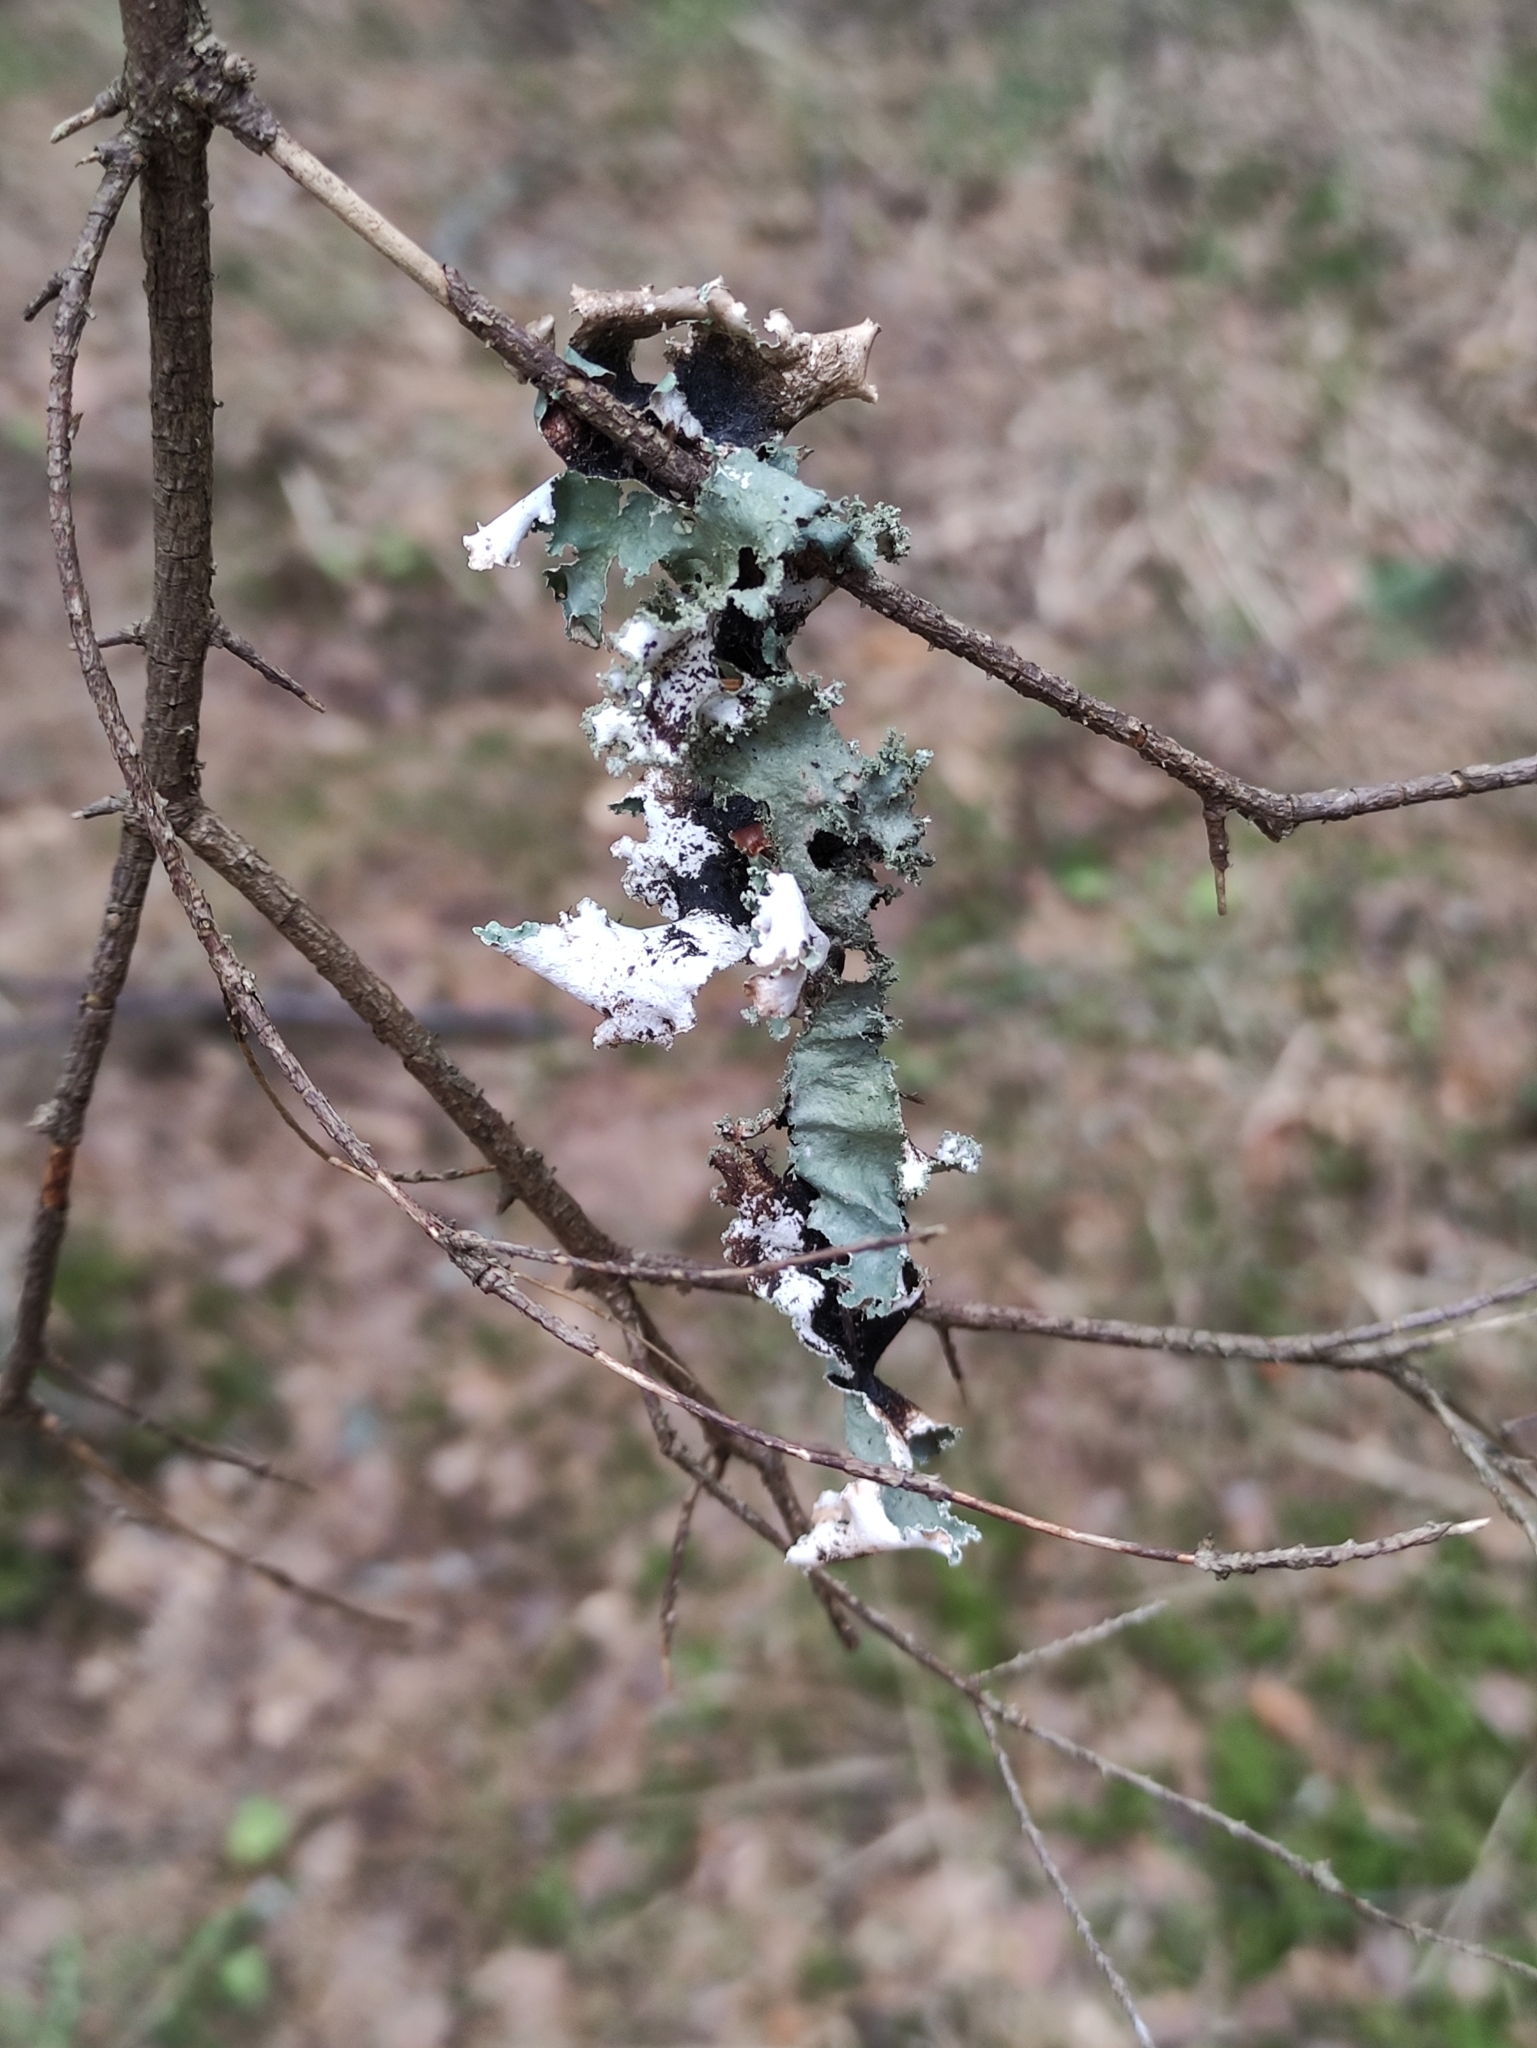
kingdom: Fungi
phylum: Ascomycota
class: Lecanoromycetes
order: Lecanorales
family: Parmeliaceae
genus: Platismatia
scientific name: Platismatia glauca
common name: Varied rag lichen
